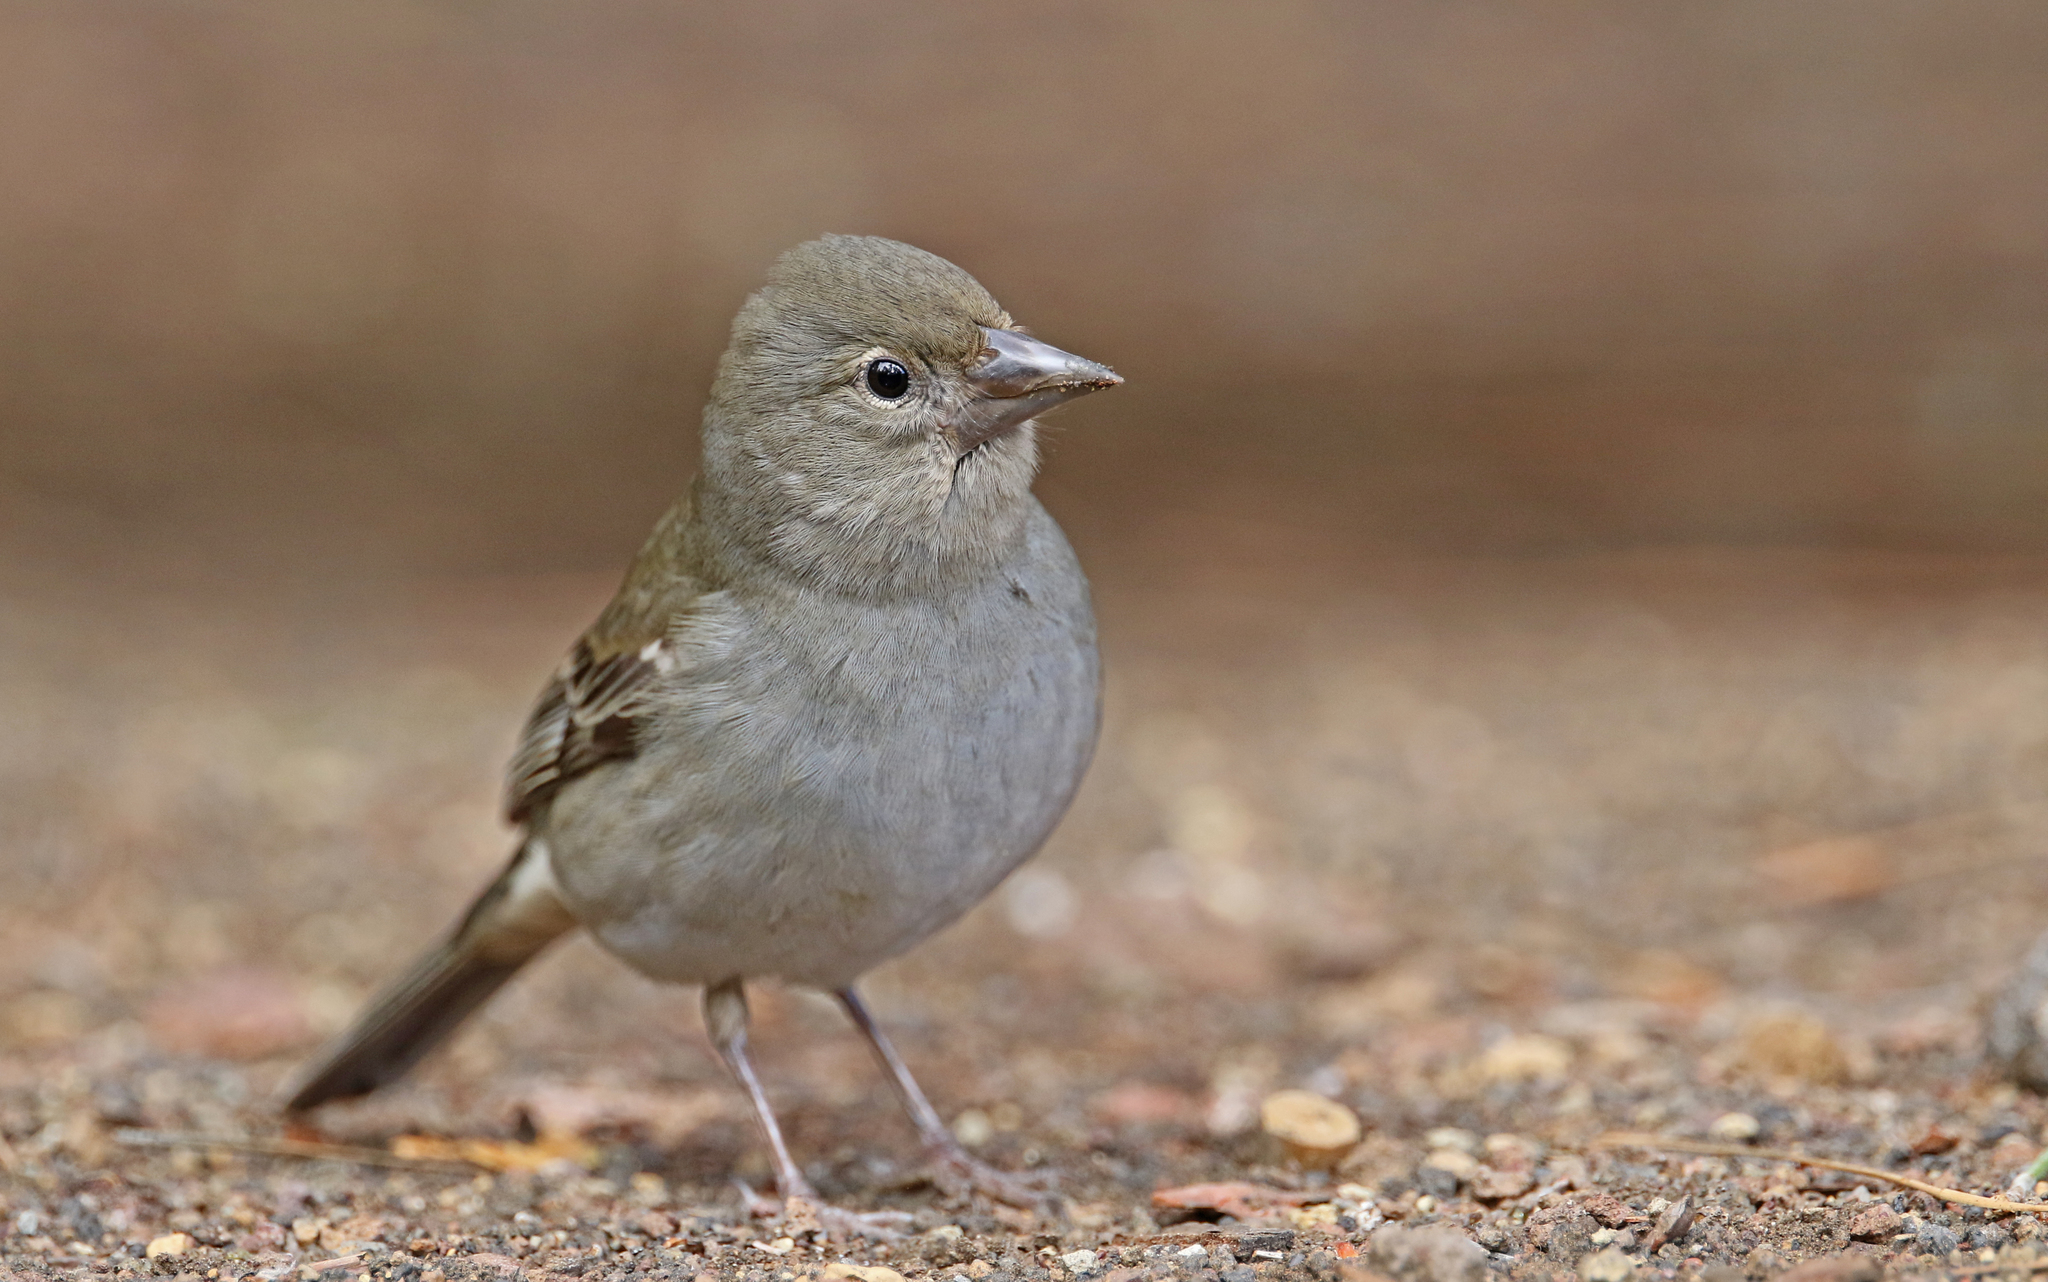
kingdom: Animalia
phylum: Chordata
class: Aves
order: Passeriformes
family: Fringillidae
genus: Fringilla
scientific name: Fringilla teydea
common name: Blue chaffinch
